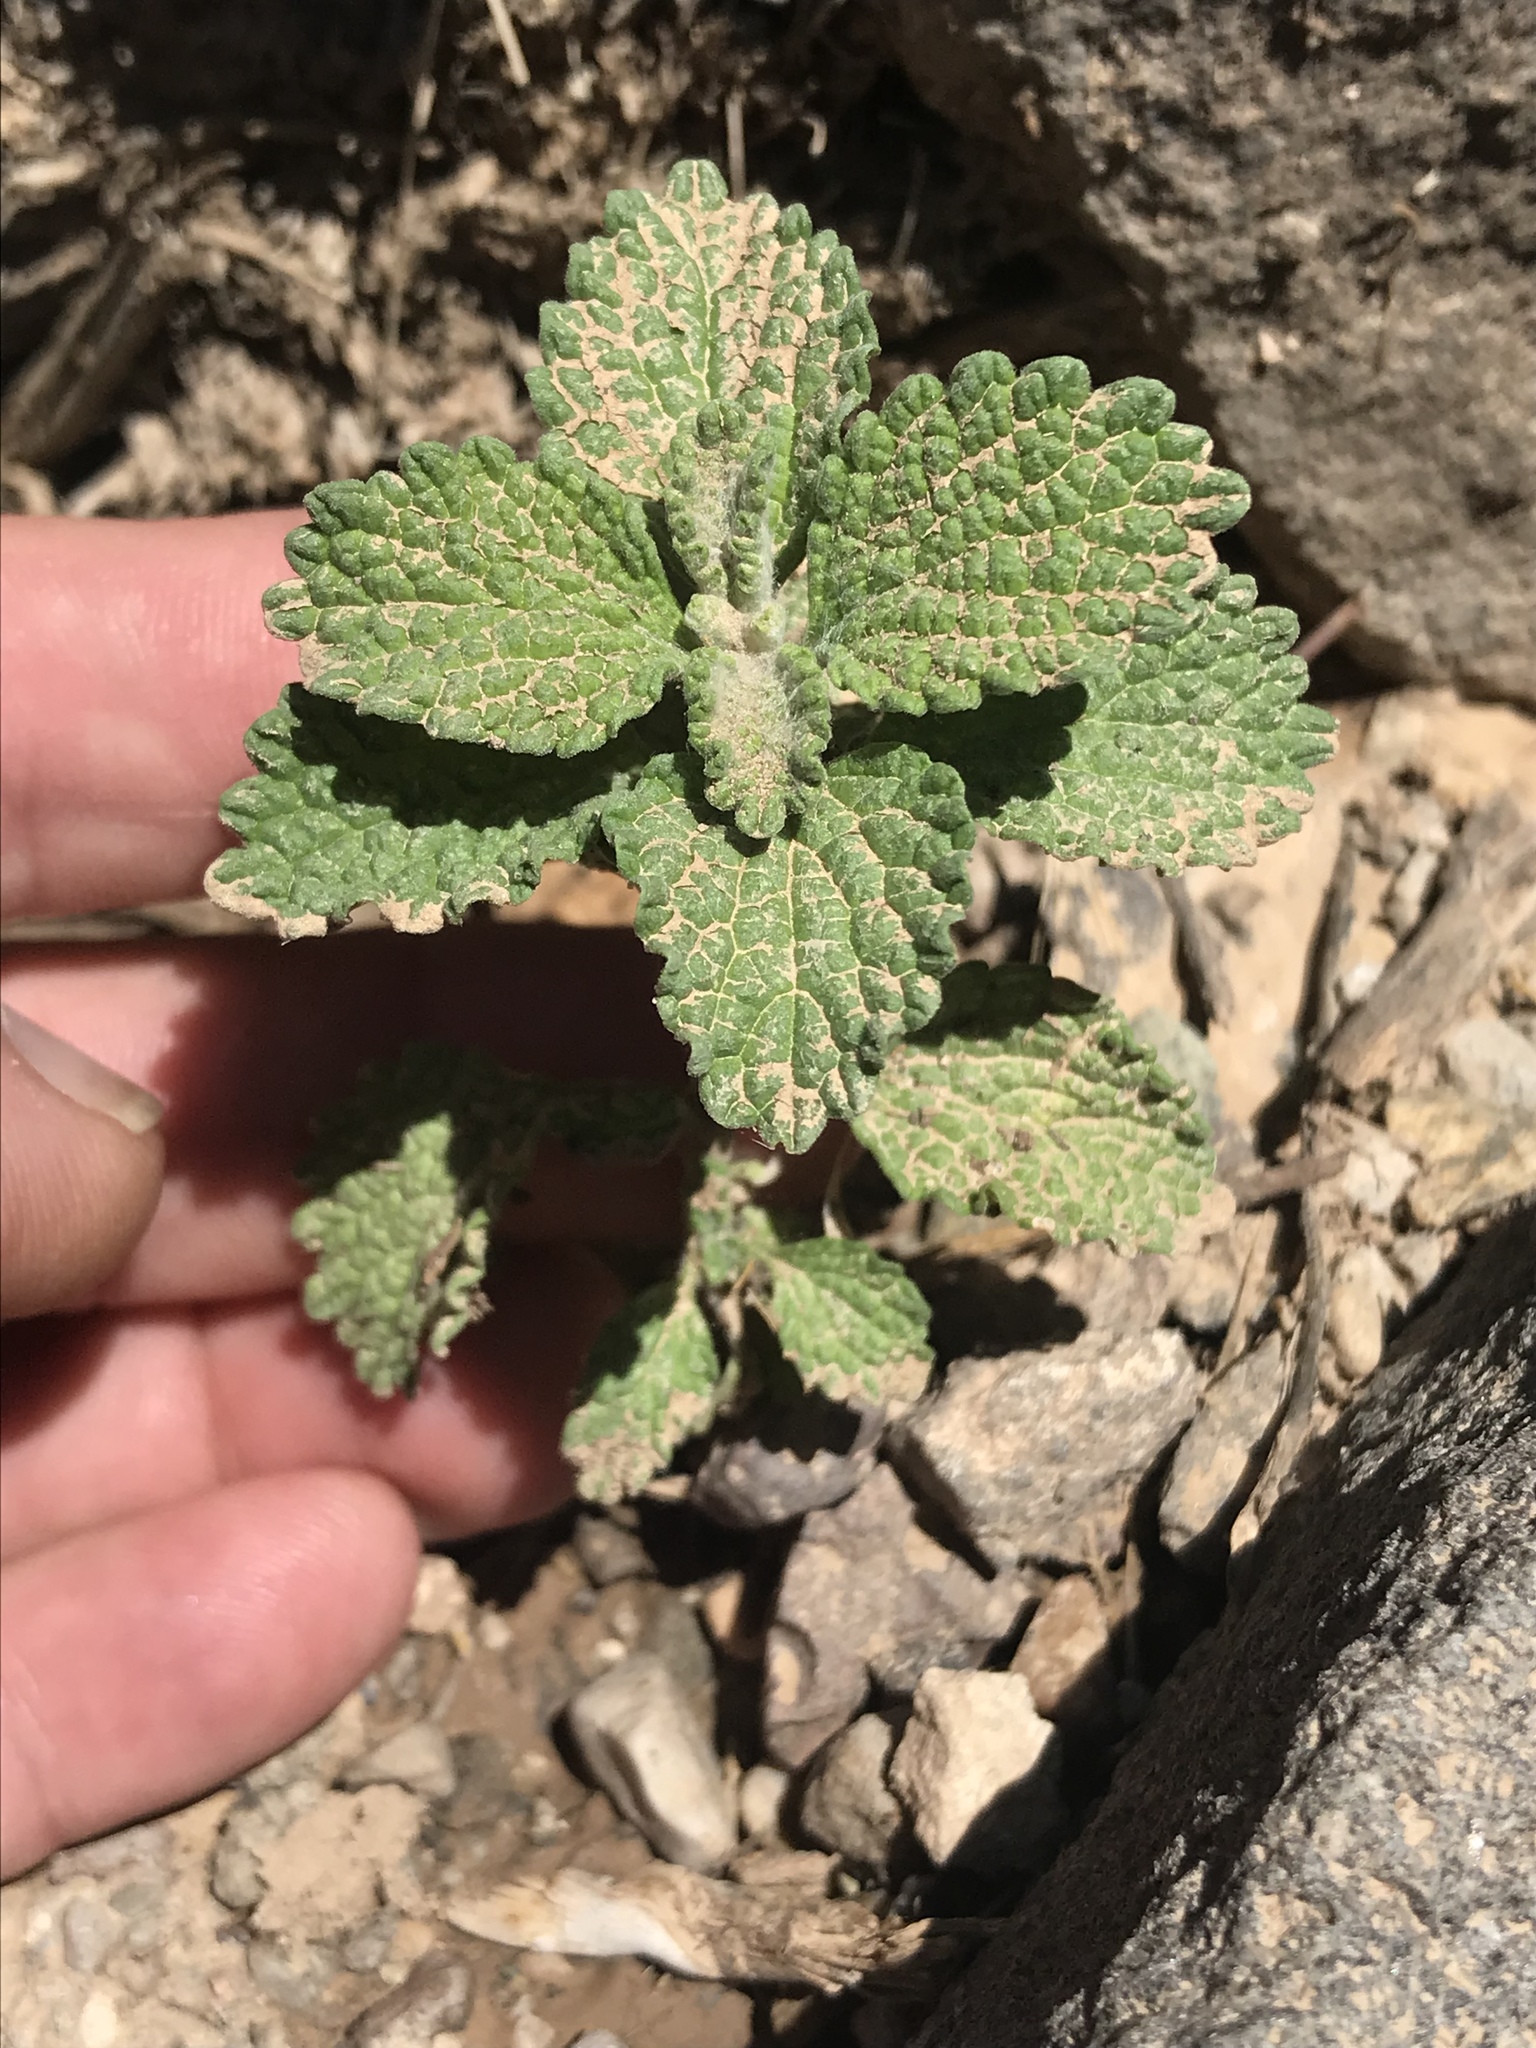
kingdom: Plantae
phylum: Tracheophyta
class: Magnoliopsida
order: Lamiales
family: Lamiaceae
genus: Marrubium
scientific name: Marrubium vulgare
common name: Horehound
